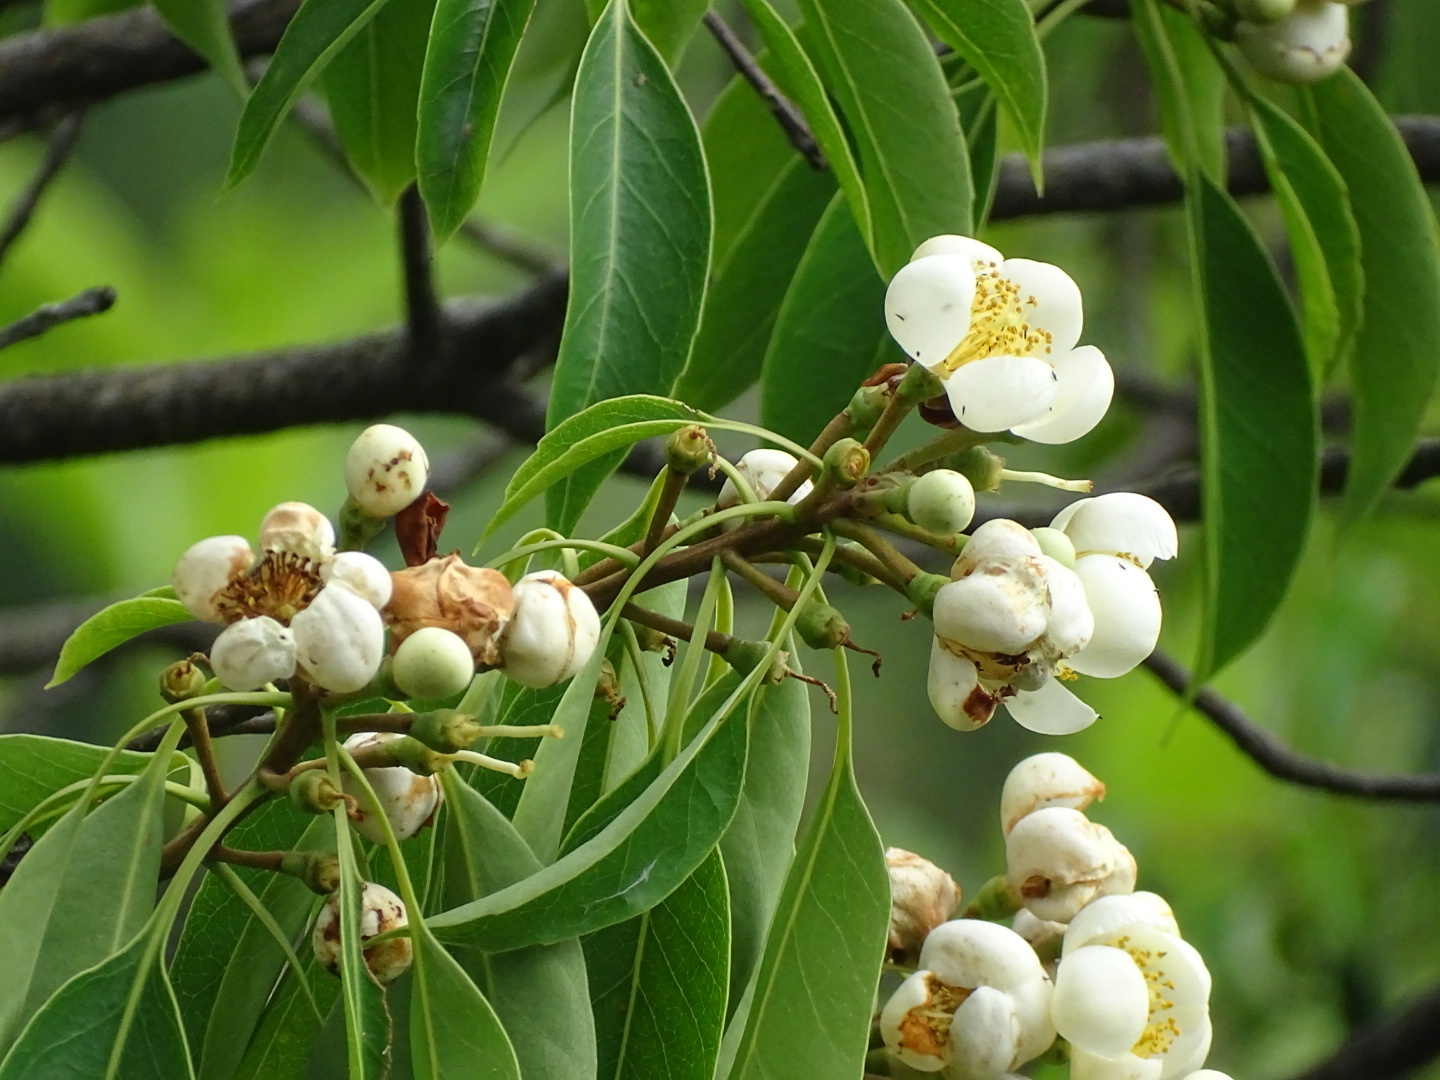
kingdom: Plantae
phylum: Tracheophyta
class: Magnoliopsida
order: Ericales
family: Theaceae
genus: Schima
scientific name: Schima superba
